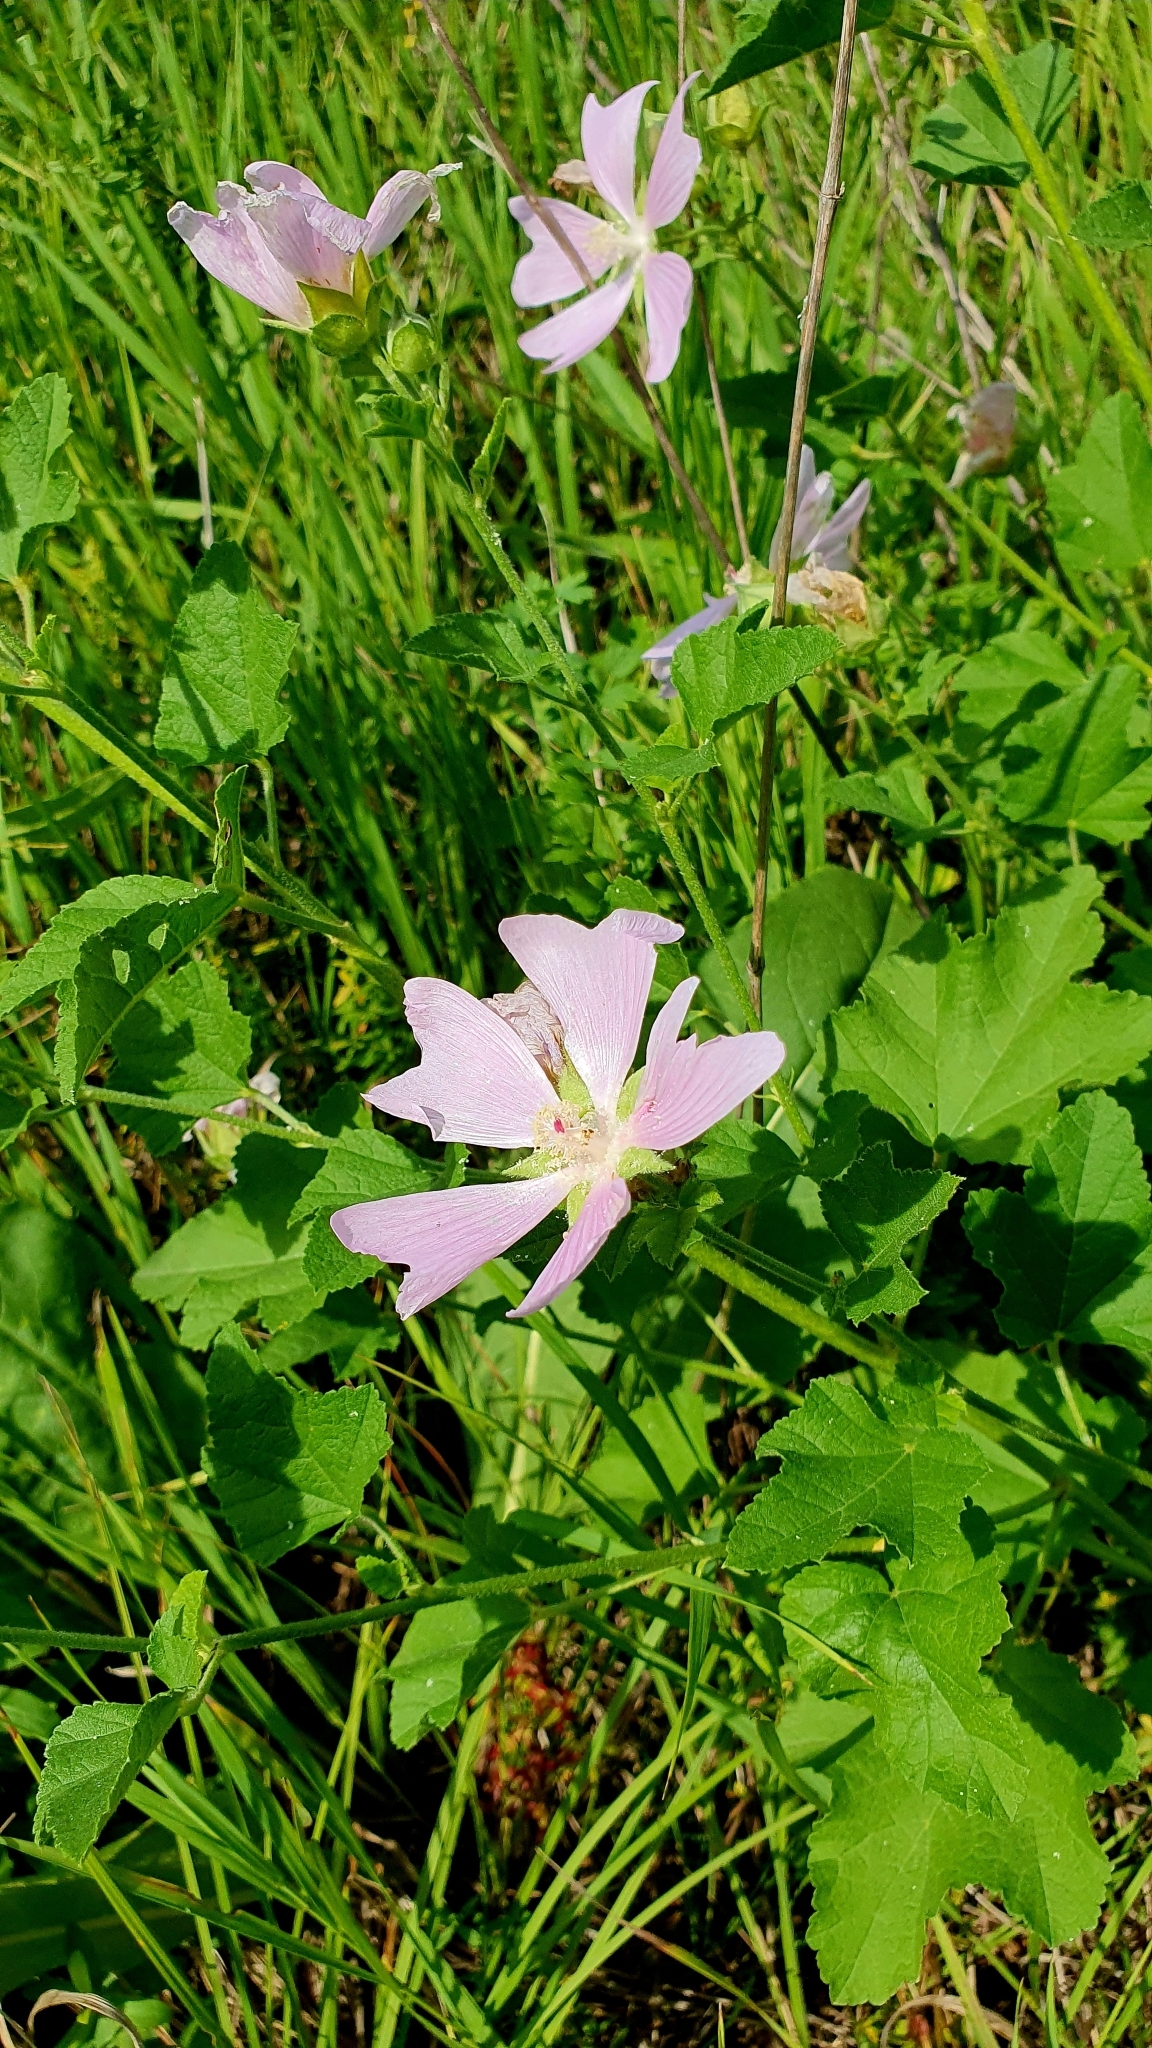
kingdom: Plantae
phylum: Tracheophyta
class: Magnoliopsida
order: Malvales
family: Malvaceae
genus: Malva
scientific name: Malva thuringiaca
